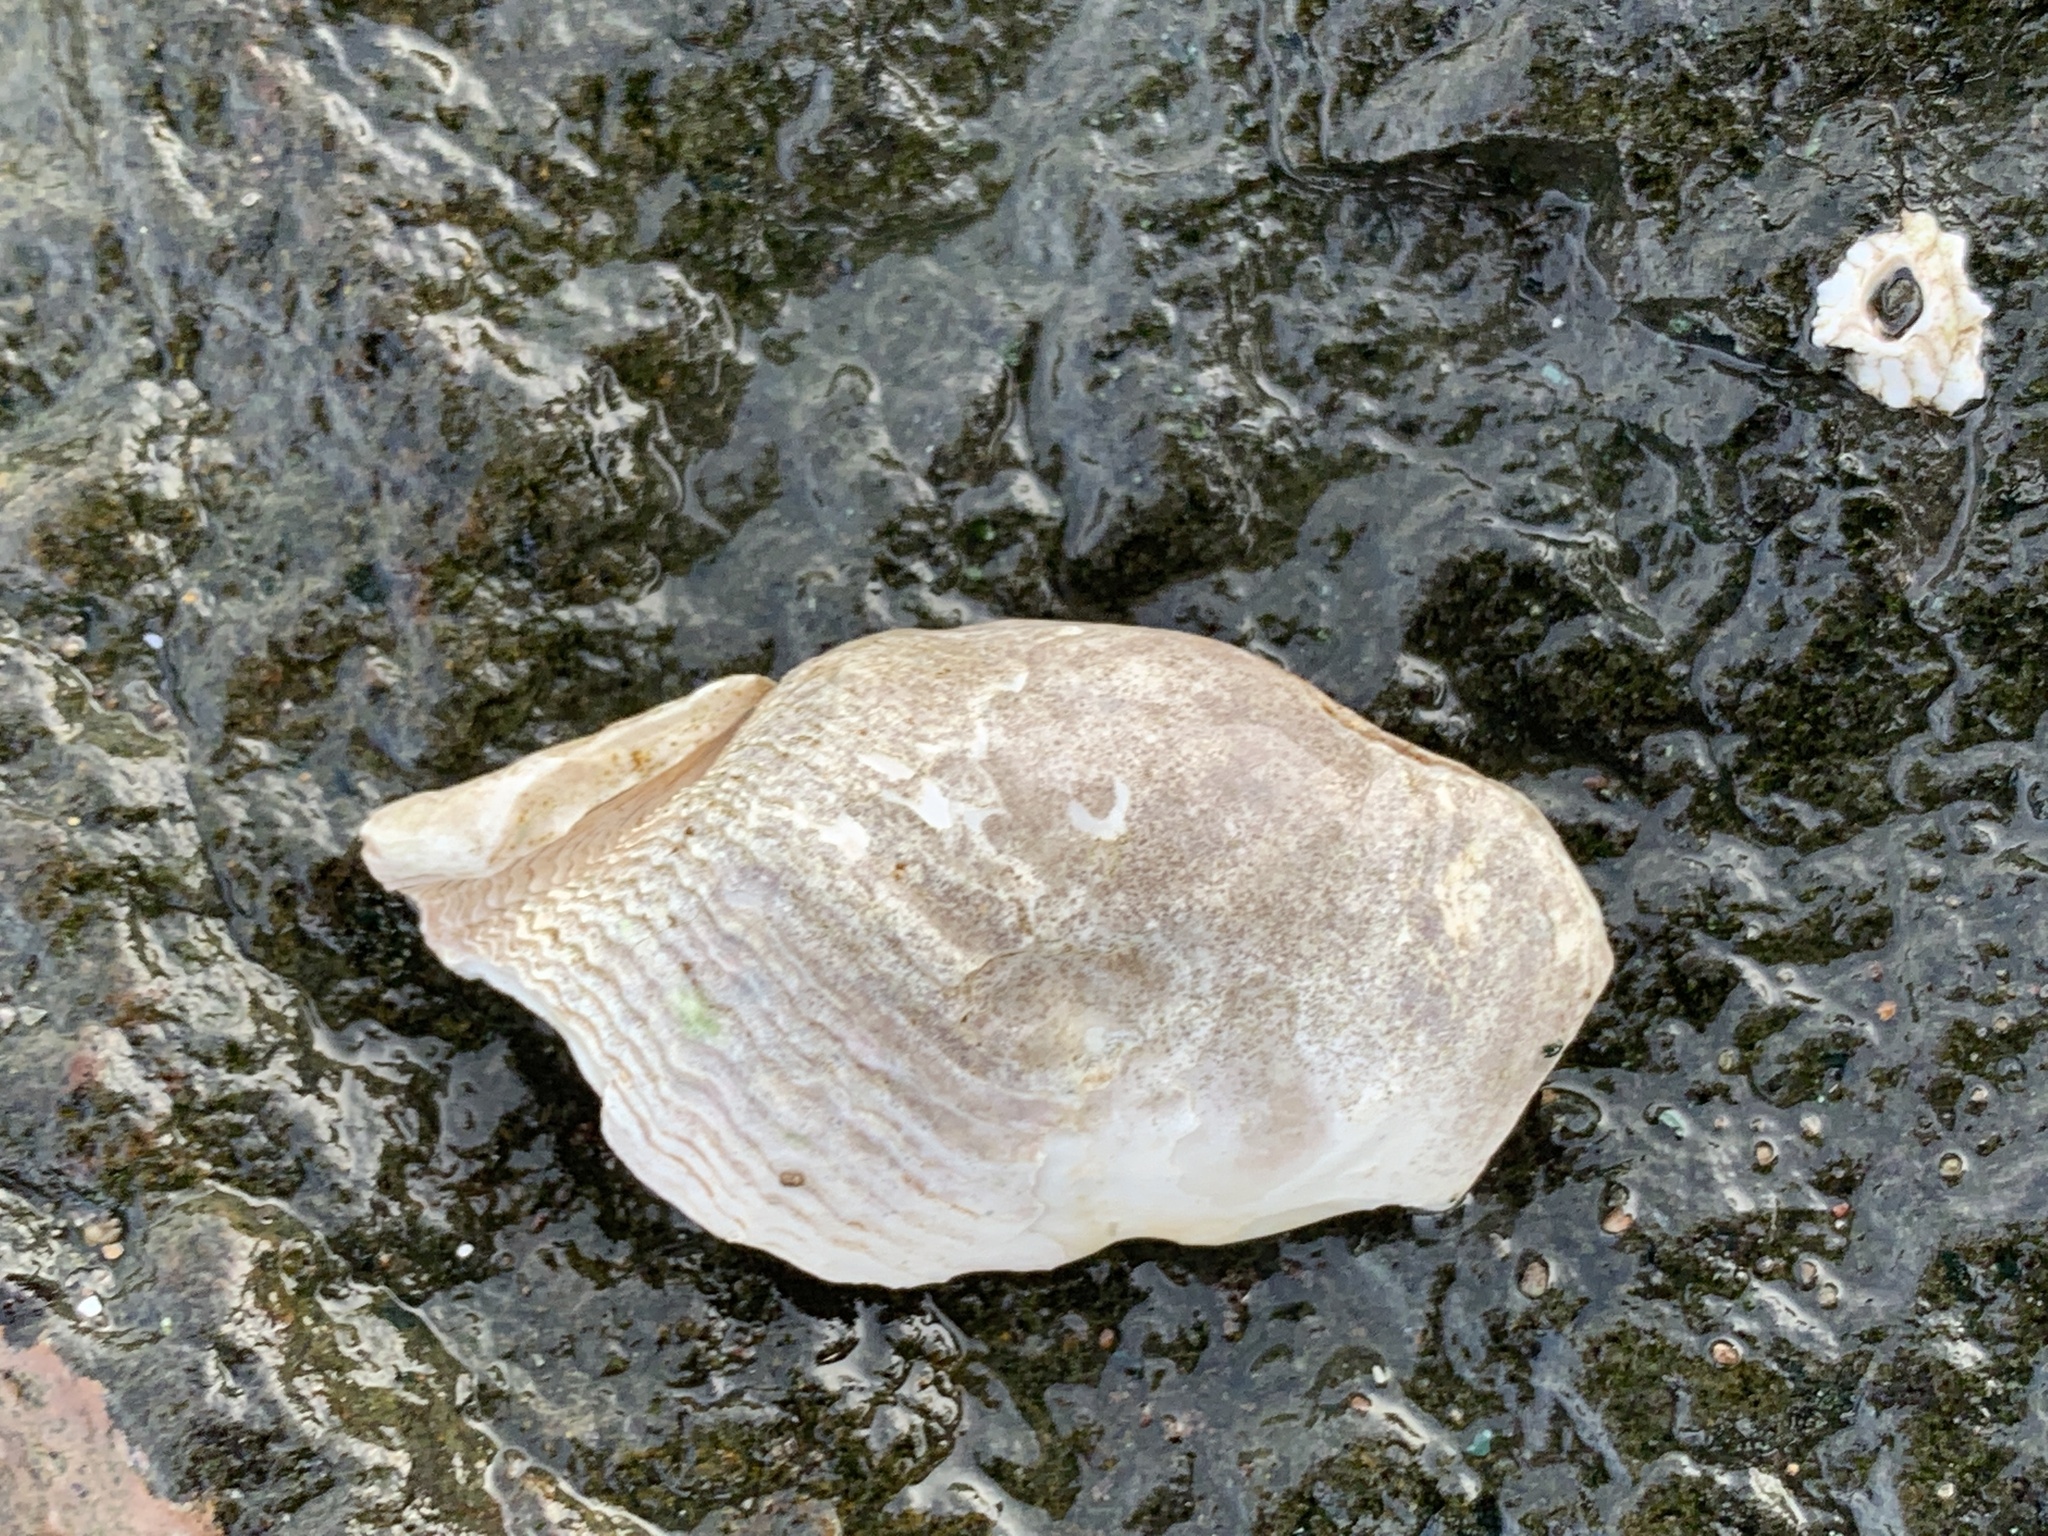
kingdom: Animalia
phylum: Mollusca
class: Bivalvia
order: Myida
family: Pholadidae
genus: Zirfaea
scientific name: Zirfaea crispata
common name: Oval piddock
